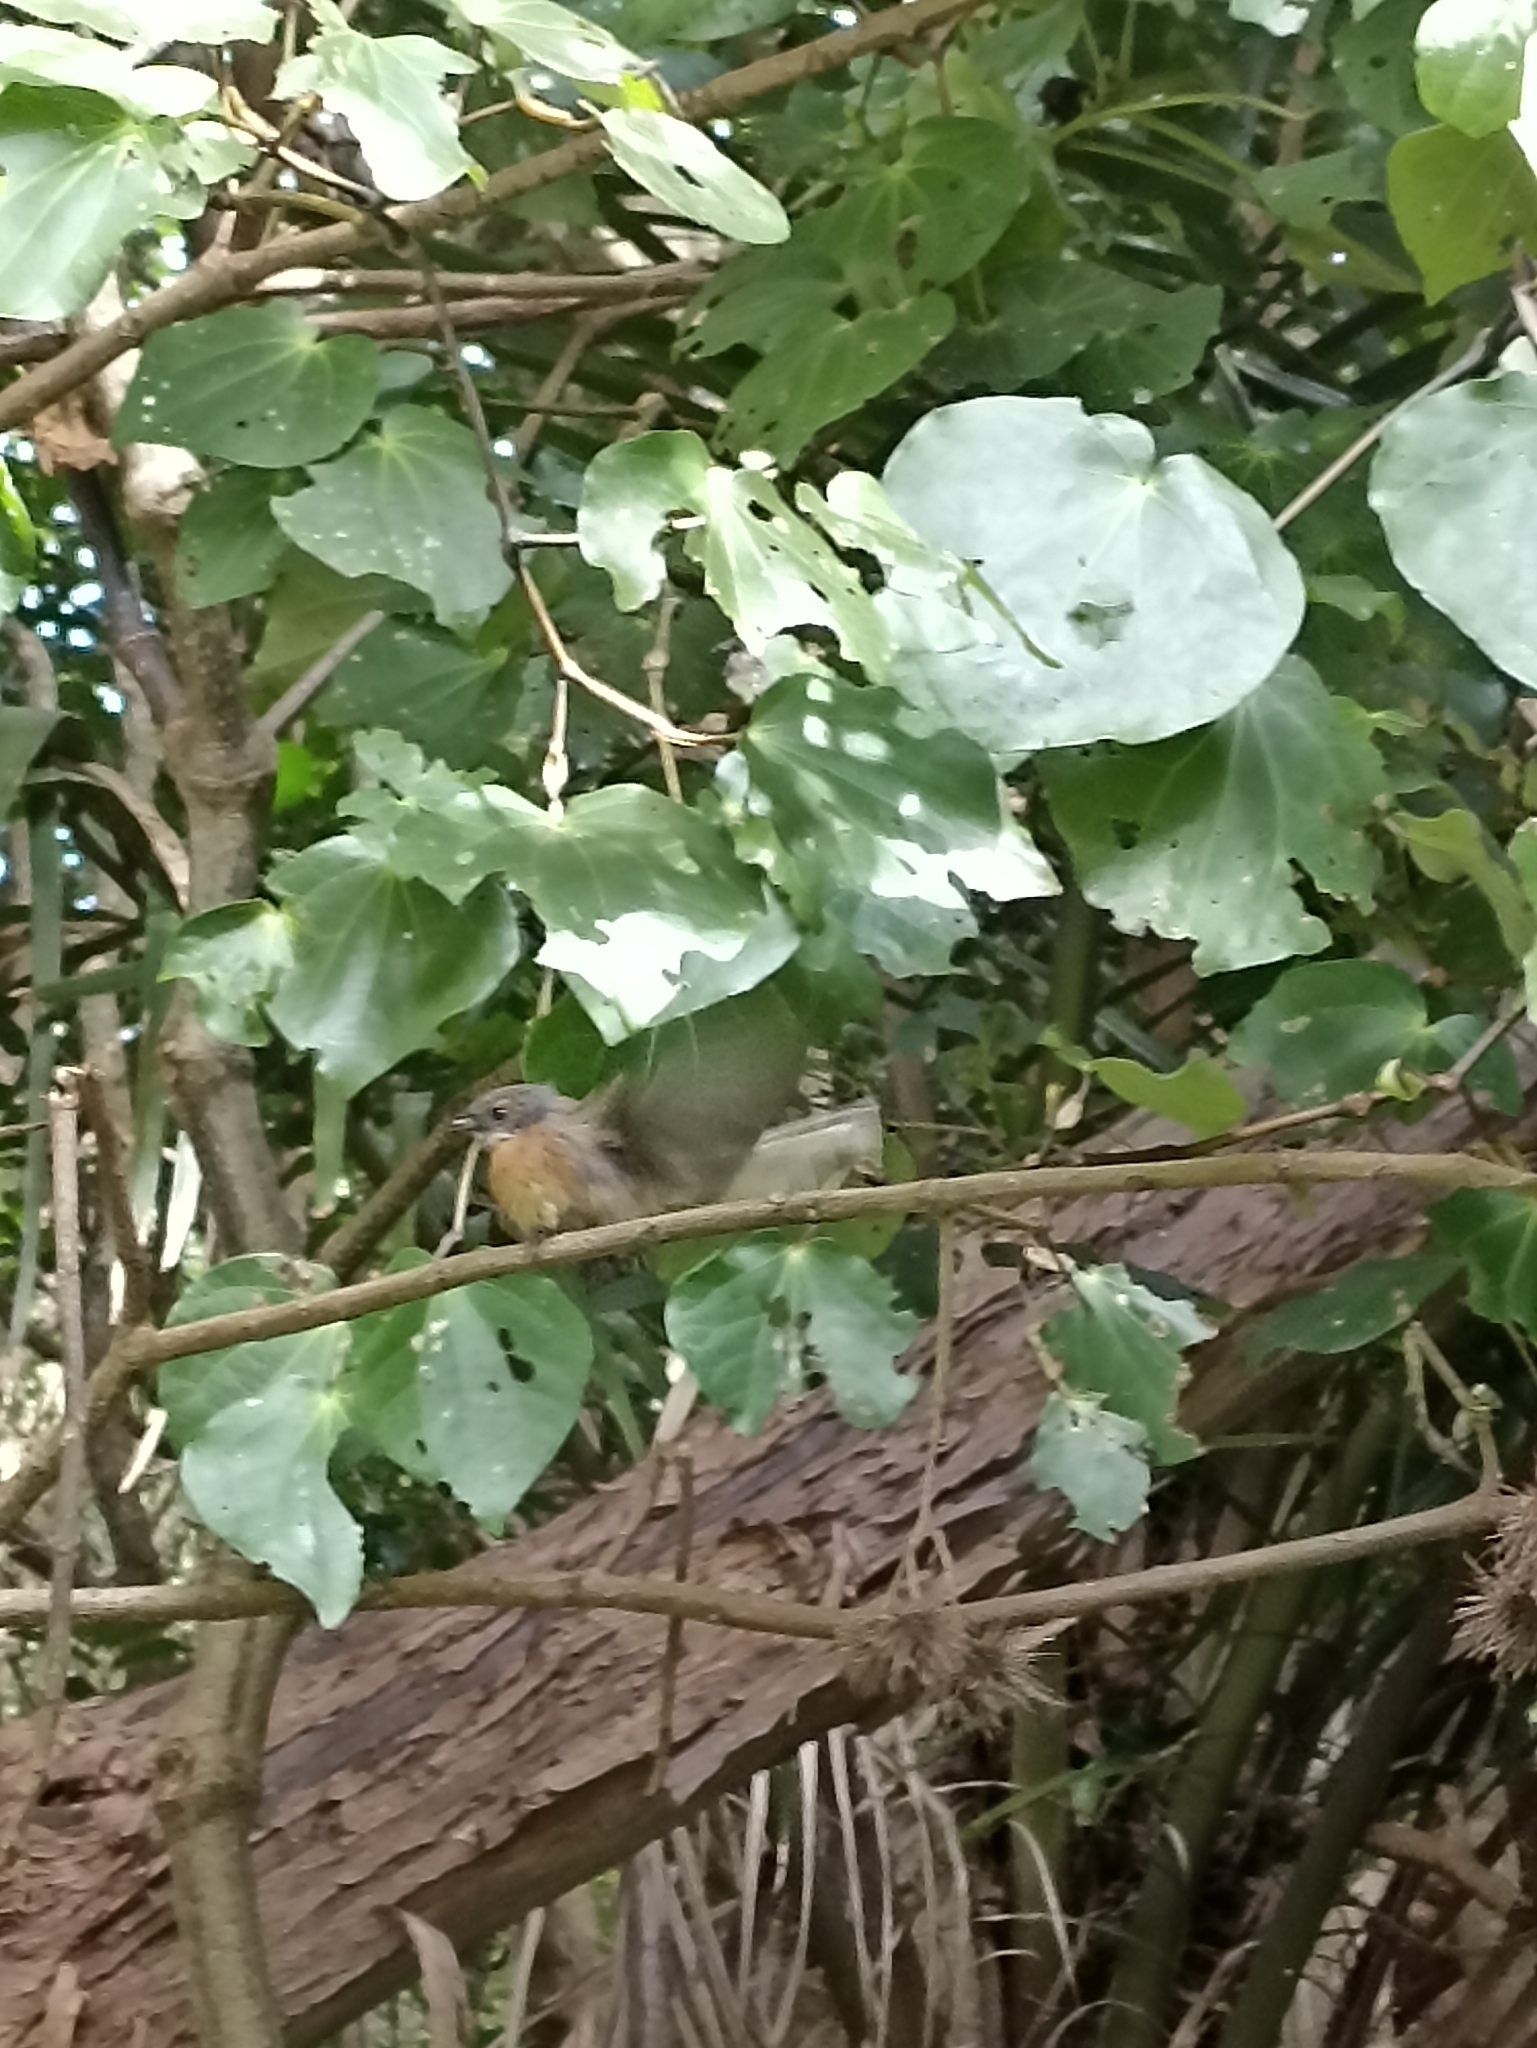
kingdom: Animalia
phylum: Chordata
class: Aves
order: Passeriformes
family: Rhipiduridae
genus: Rhipidura
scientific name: Rhipidura fuliginosa
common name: New zealand fantail
